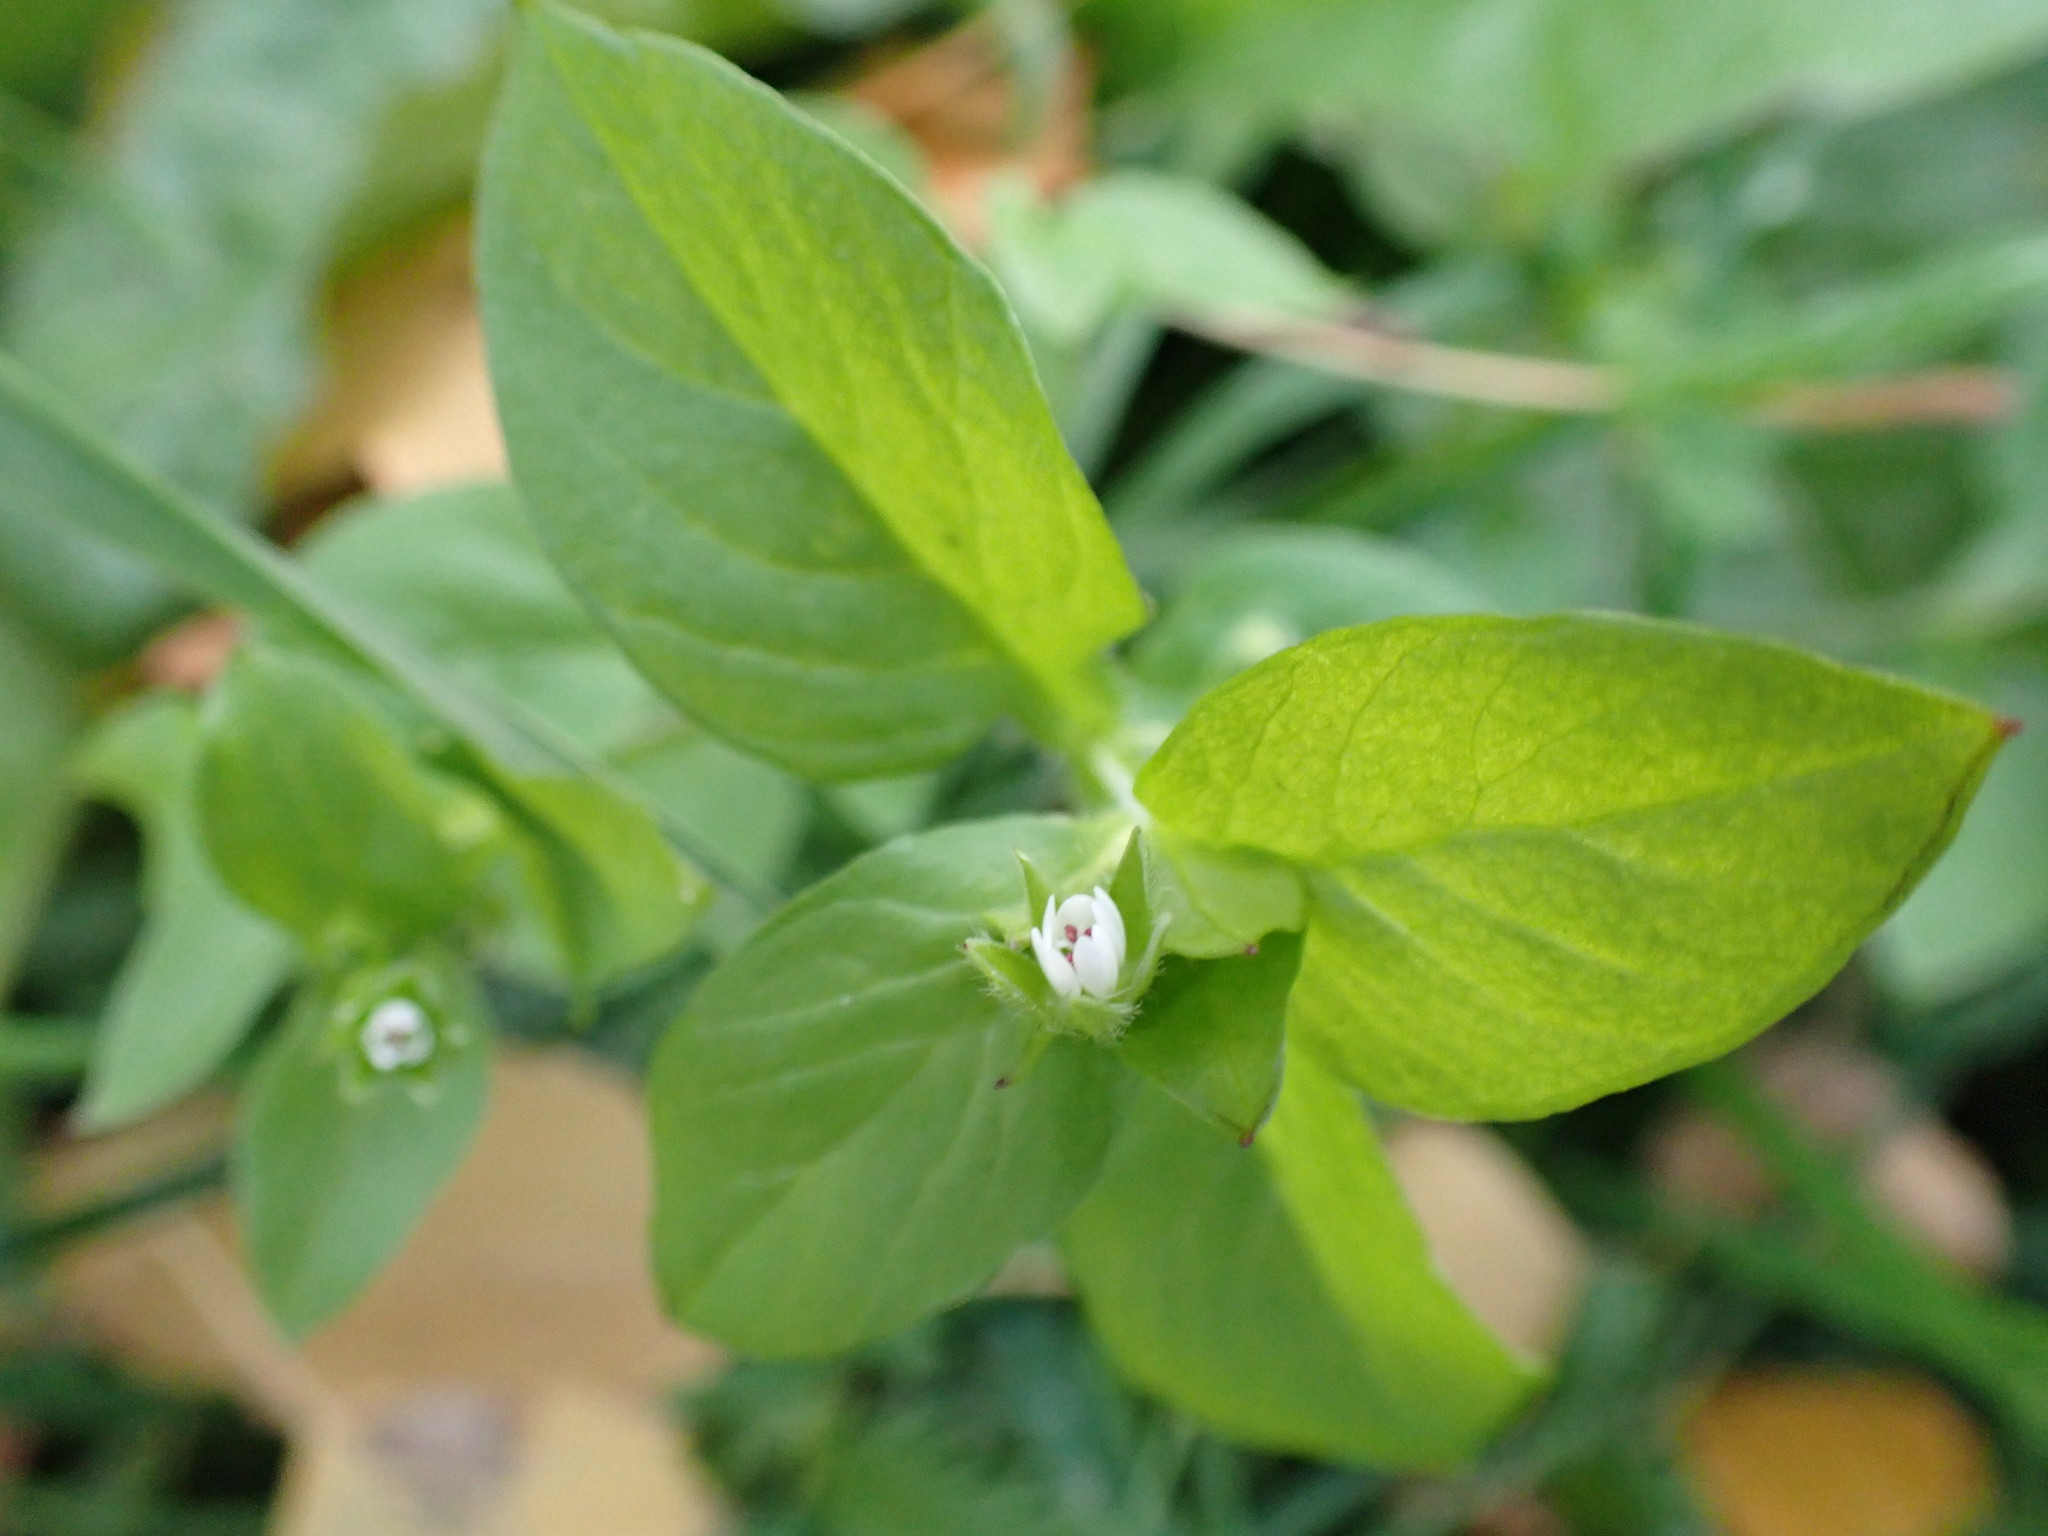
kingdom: Plantae
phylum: Tracheophyta
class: Magnoliopsida
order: Caryophyllales
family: Caryophyllaceae
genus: Stellaria
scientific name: Stellaria media
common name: Common chickweed
